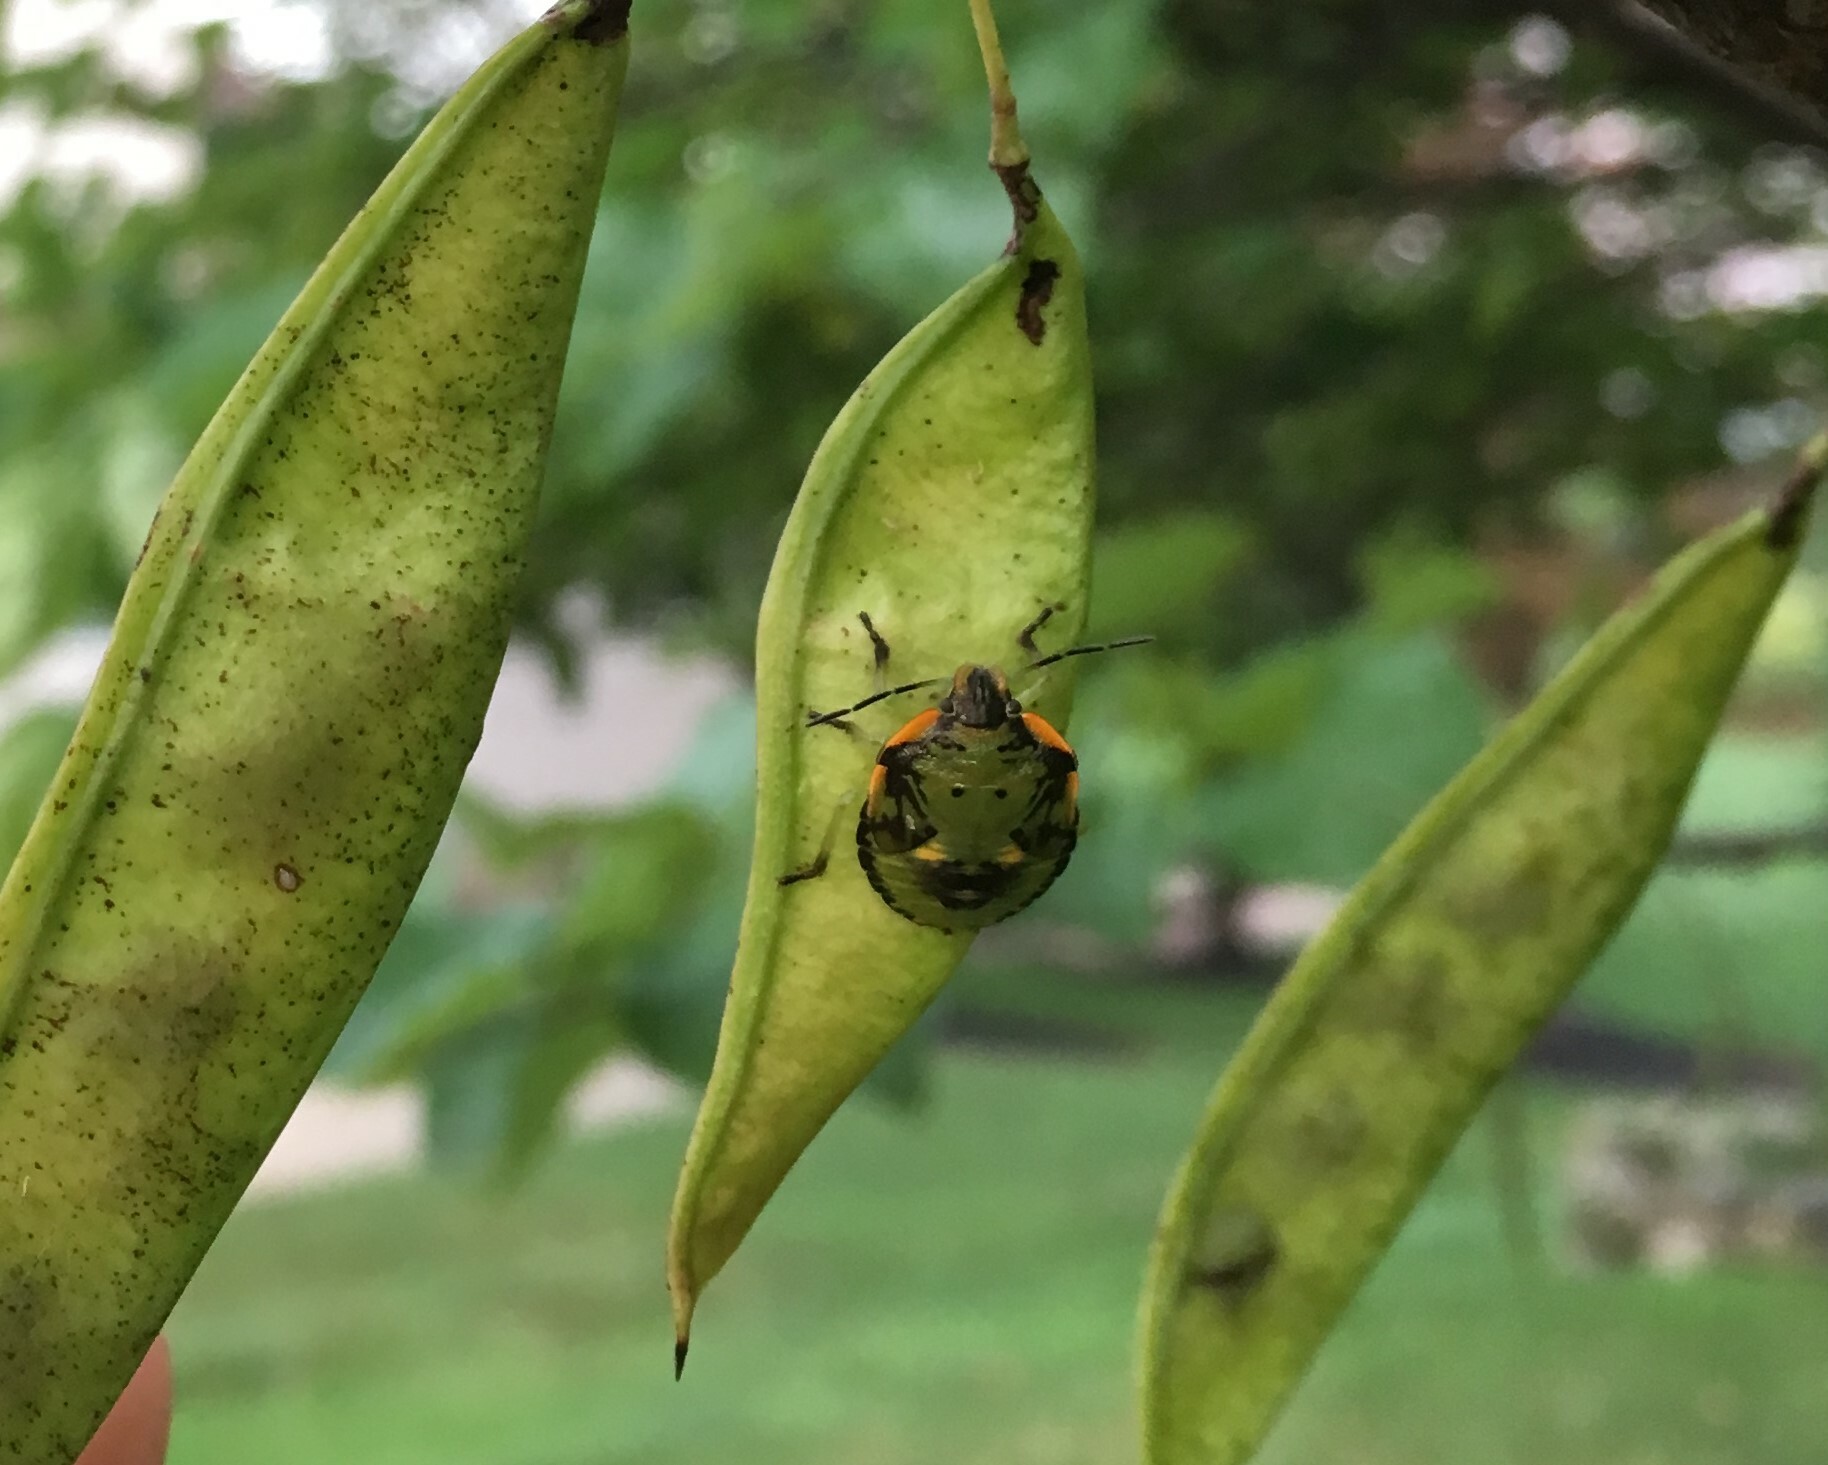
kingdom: Animalia
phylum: Arthropoda
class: Insecta
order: Hemiptera
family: Pentatomidae
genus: Chinavia
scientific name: Chinavia hilaris
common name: Green stink bug
